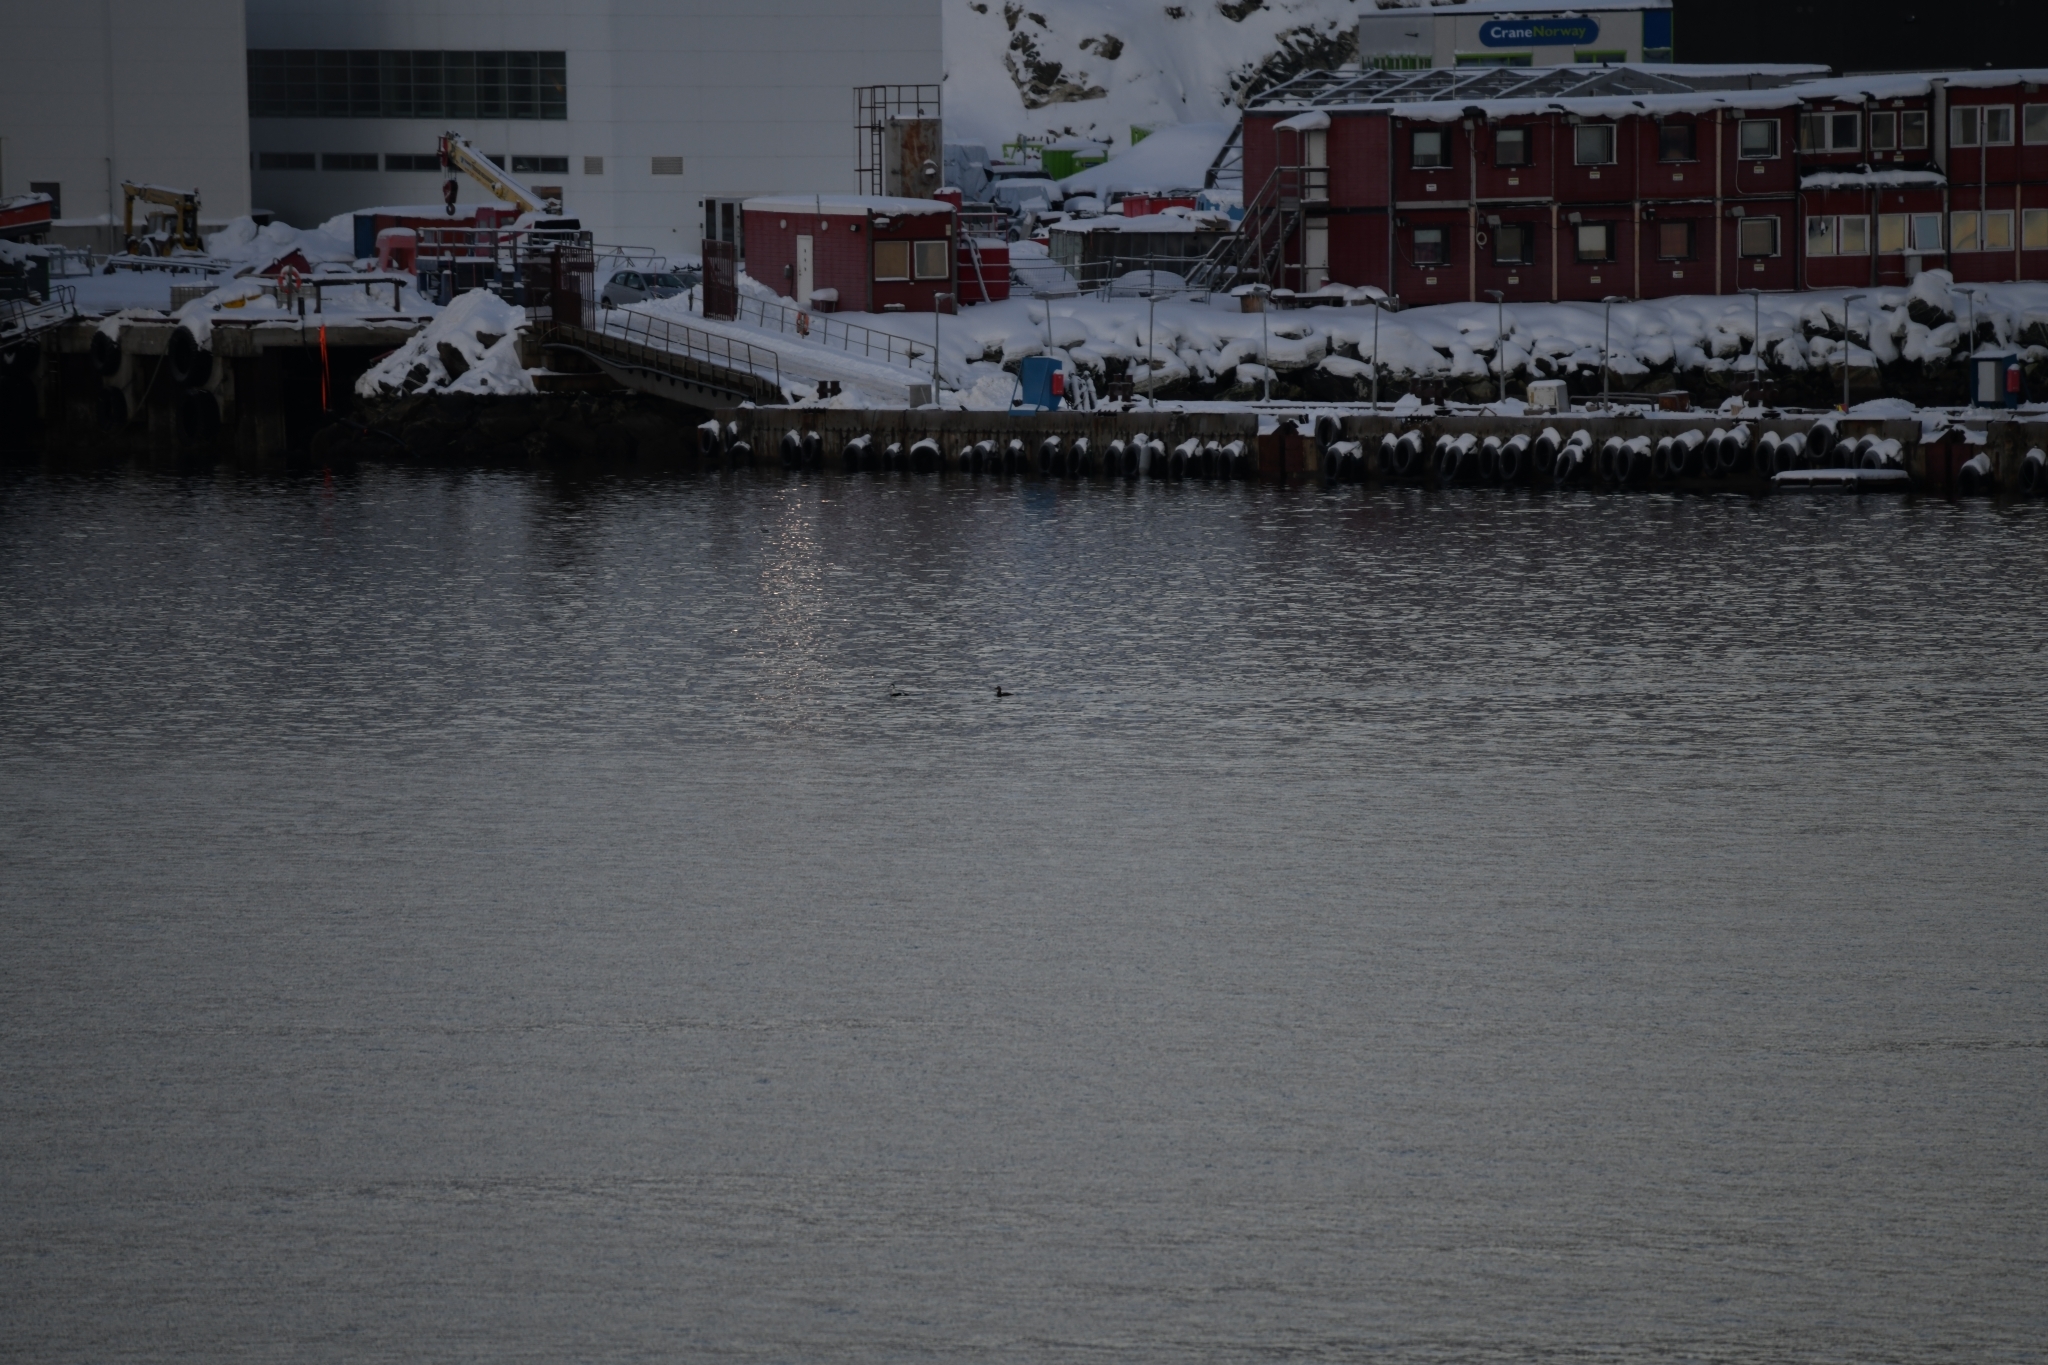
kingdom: Animalia
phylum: Chordata
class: Aves
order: Anseriformes
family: Anatidae
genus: Somateria
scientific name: Somateria mollissima
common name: Common eider
